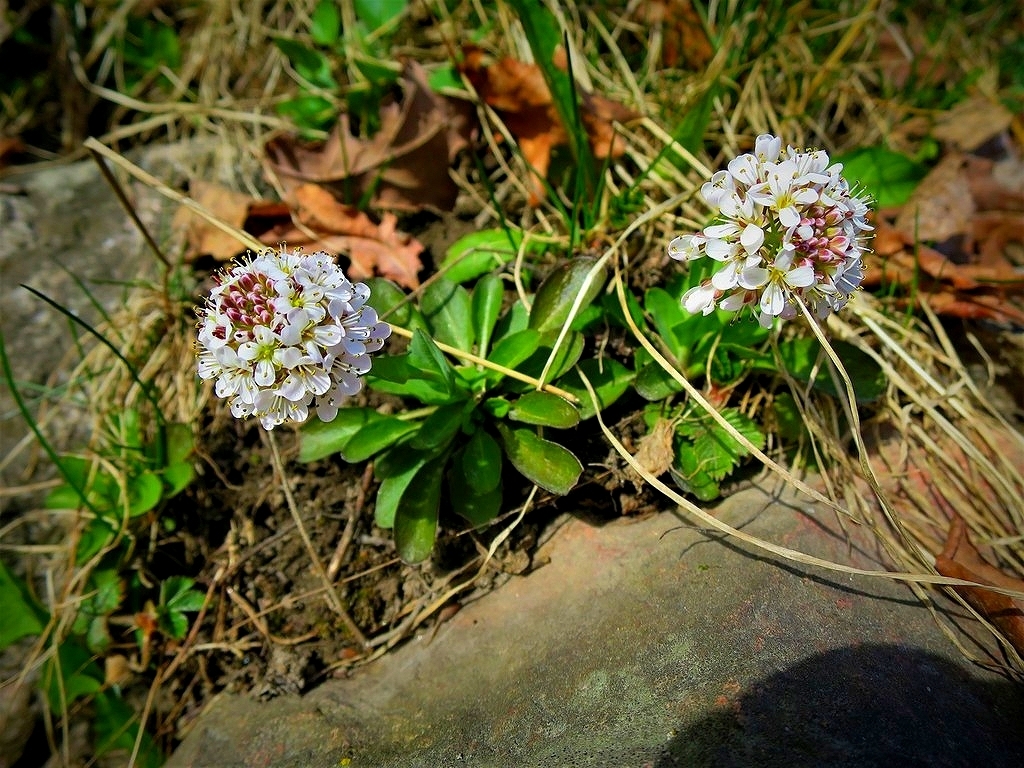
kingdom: Plantae
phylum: Tracheophyta
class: Magnoliopsida
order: Brassicales
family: Brassicaceae
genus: Noccaea
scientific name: Noccaea caerulescens
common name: Alpine pennycress
